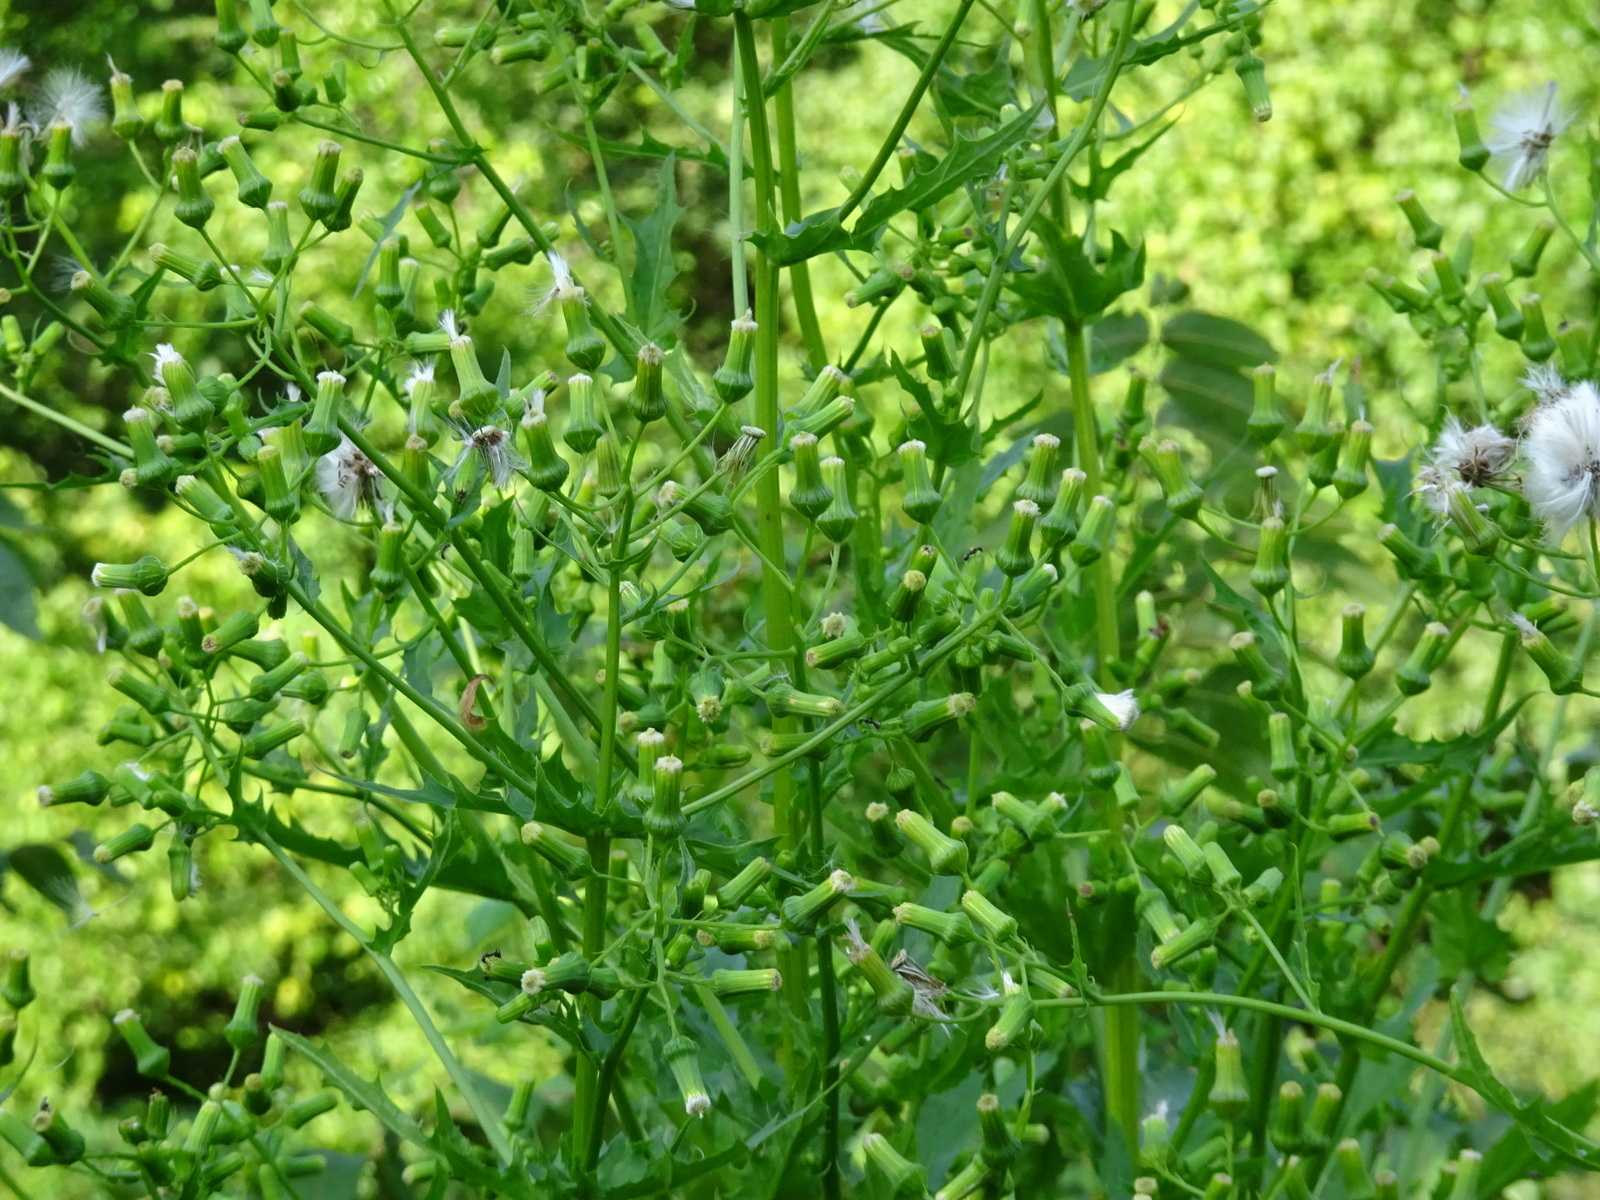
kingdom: Plantae
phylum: Tracheophyta
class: Magnoliopsida
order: Asterales
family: Asteraceae
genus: Erechtites
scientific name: Erechtites hieraciifolius
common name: American burnweed
